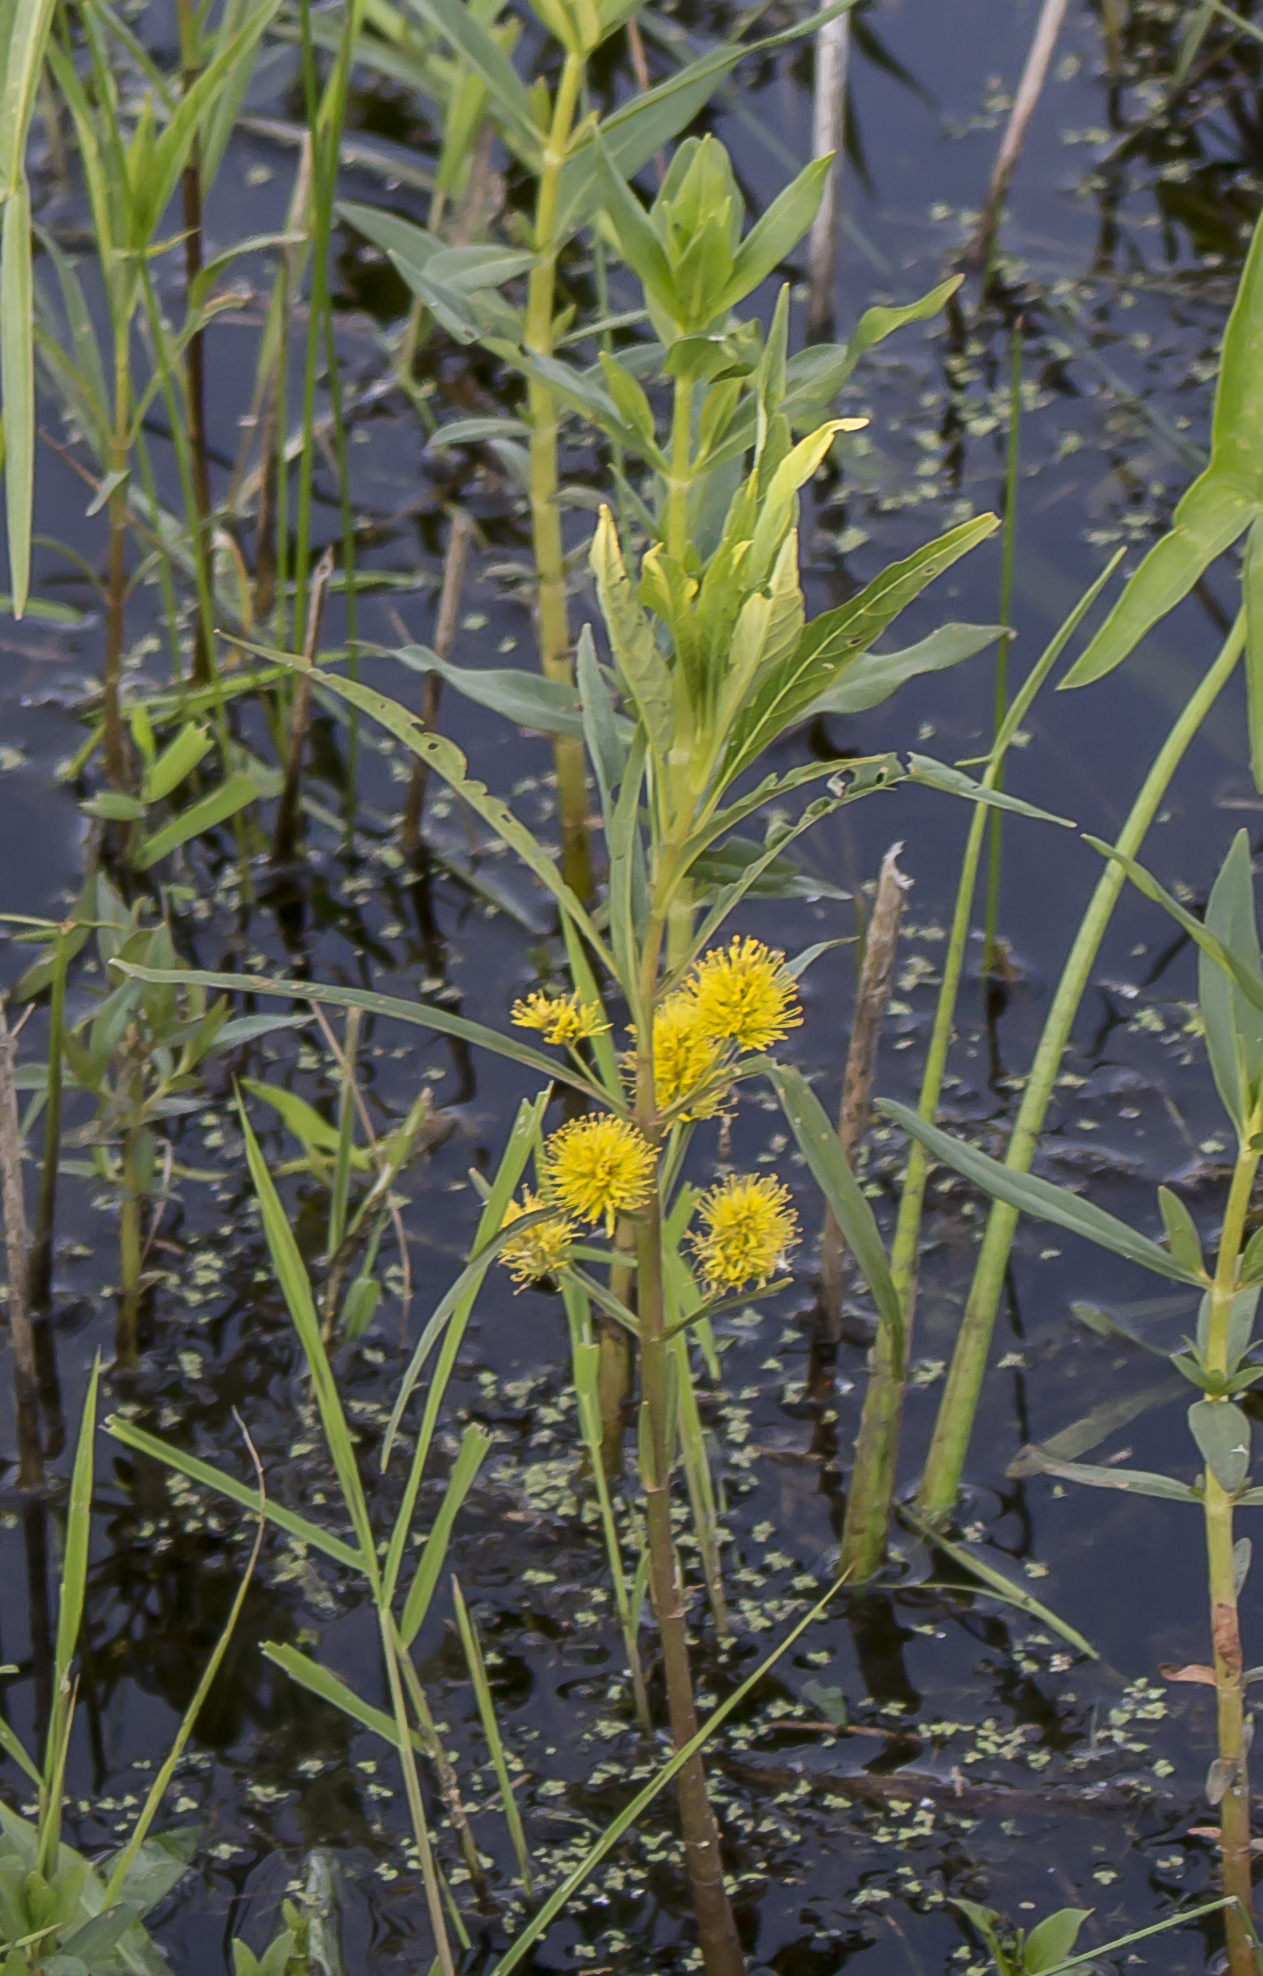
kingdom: Plantae
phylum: Tracheophyta
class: Magnoliopsida
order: Ericales
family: Primulaceae
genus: Lysimachia
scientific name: Lysimachia thyrsiflora
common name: Tufted loosestrife
